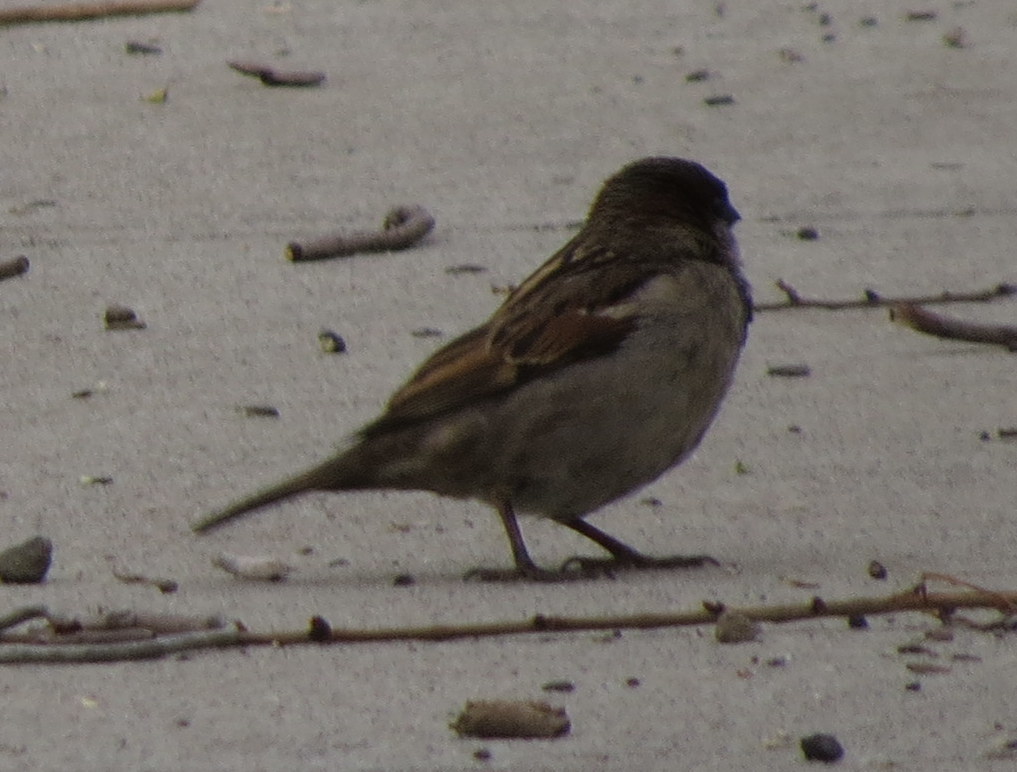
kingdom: Animalia
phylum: Chordata
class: Aves
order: Passeriformes
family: Passeridae
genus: Passer
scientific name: Passer domesticus
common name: House sparrow
